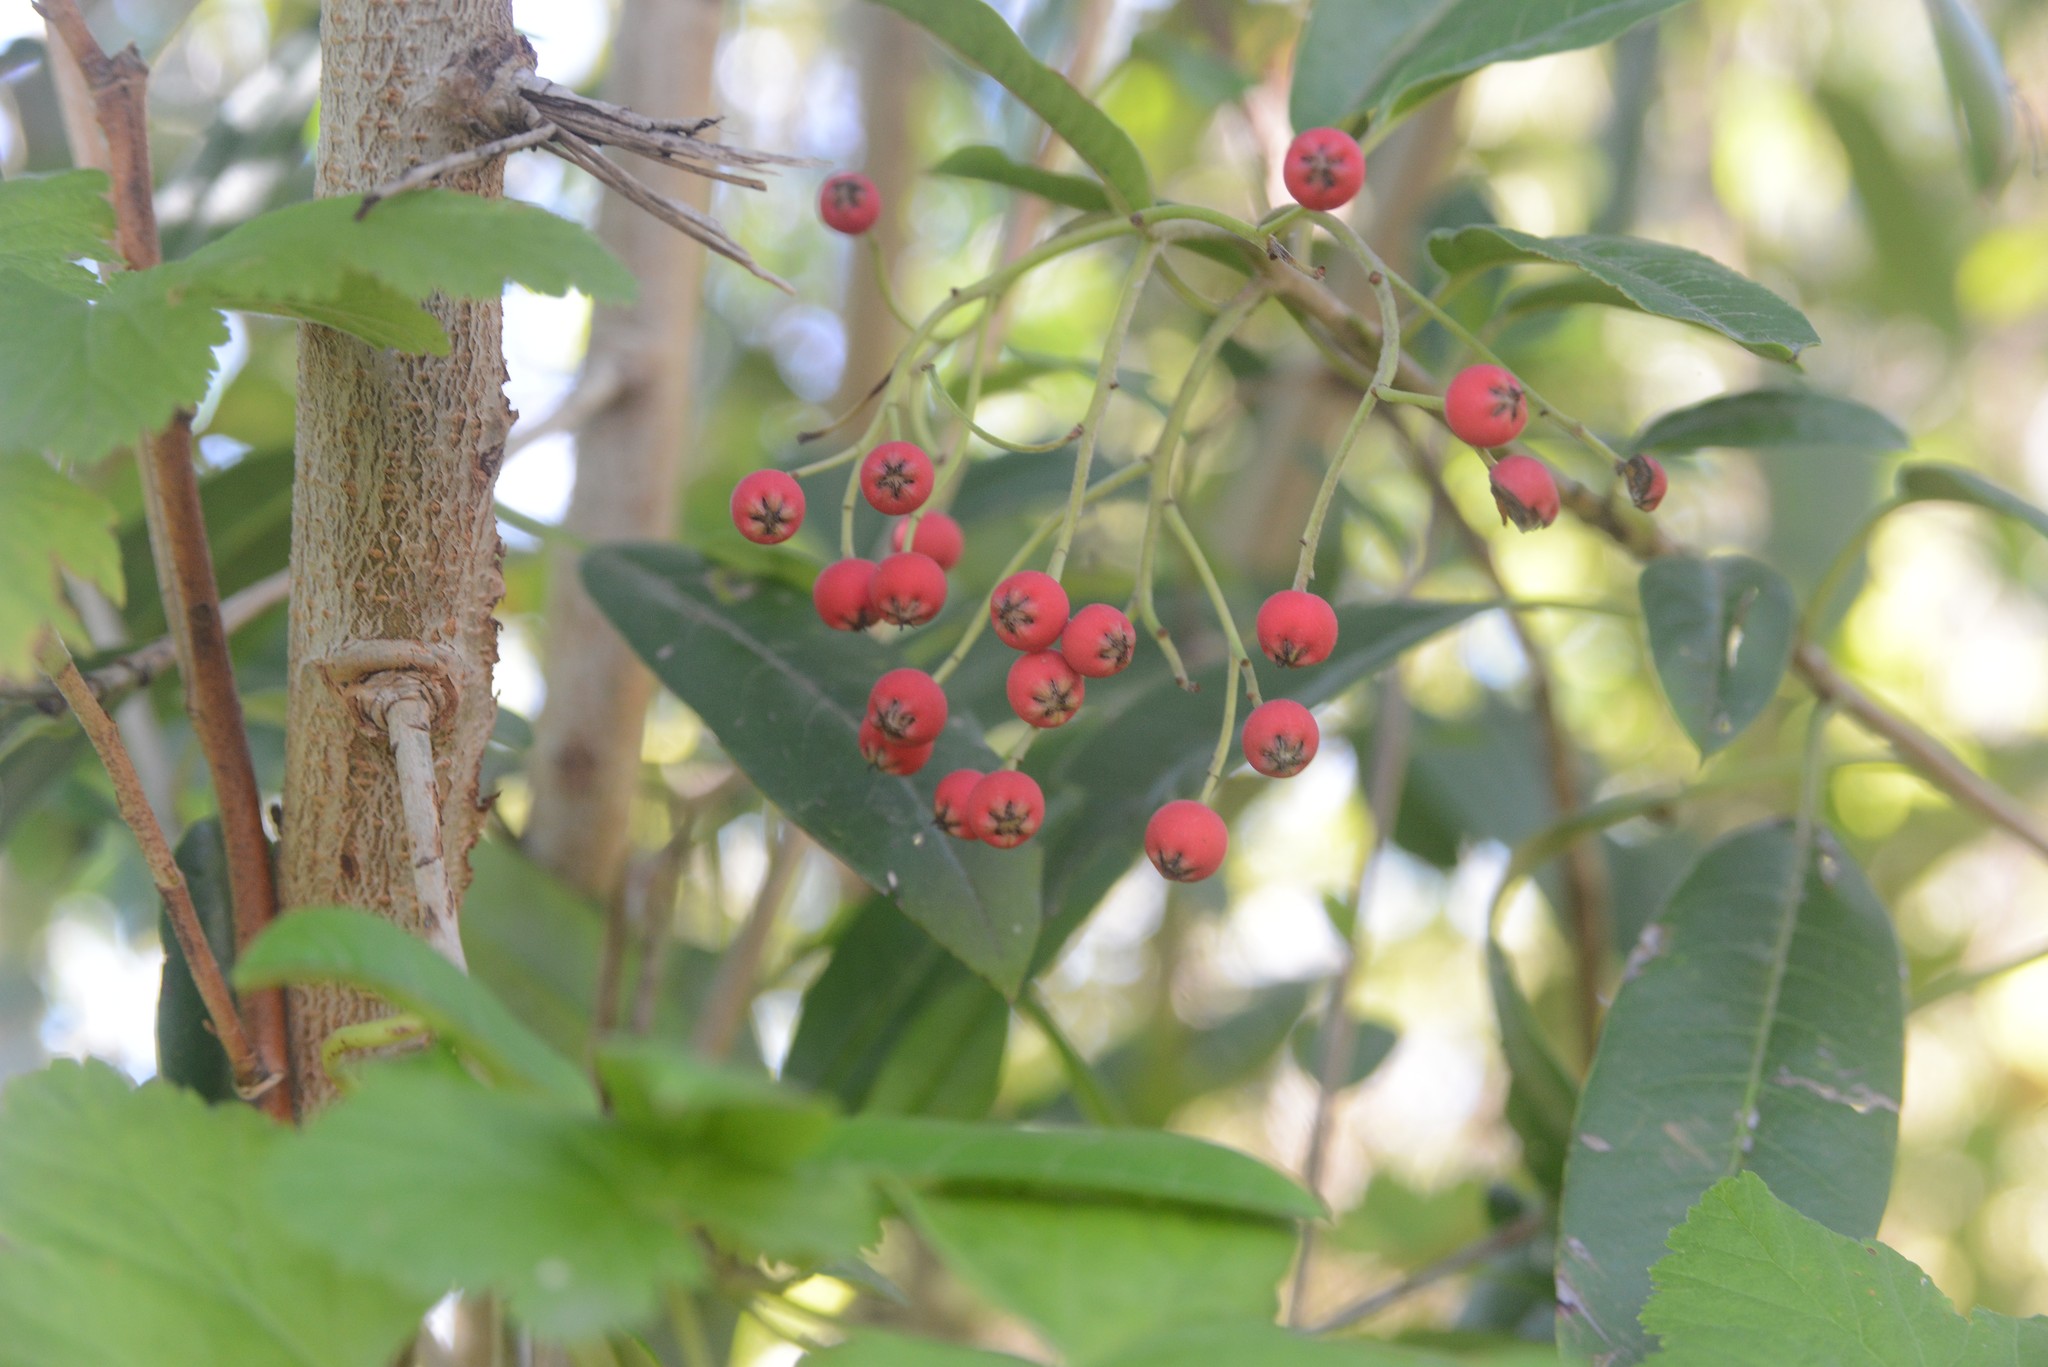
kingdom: Plantae
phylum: Tracheophyta
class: Magnoliopsida
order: Rosales
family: Rosaceae
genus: Stranvaesia
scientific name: Stranvaesia davidiana
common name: Chinese photinia
